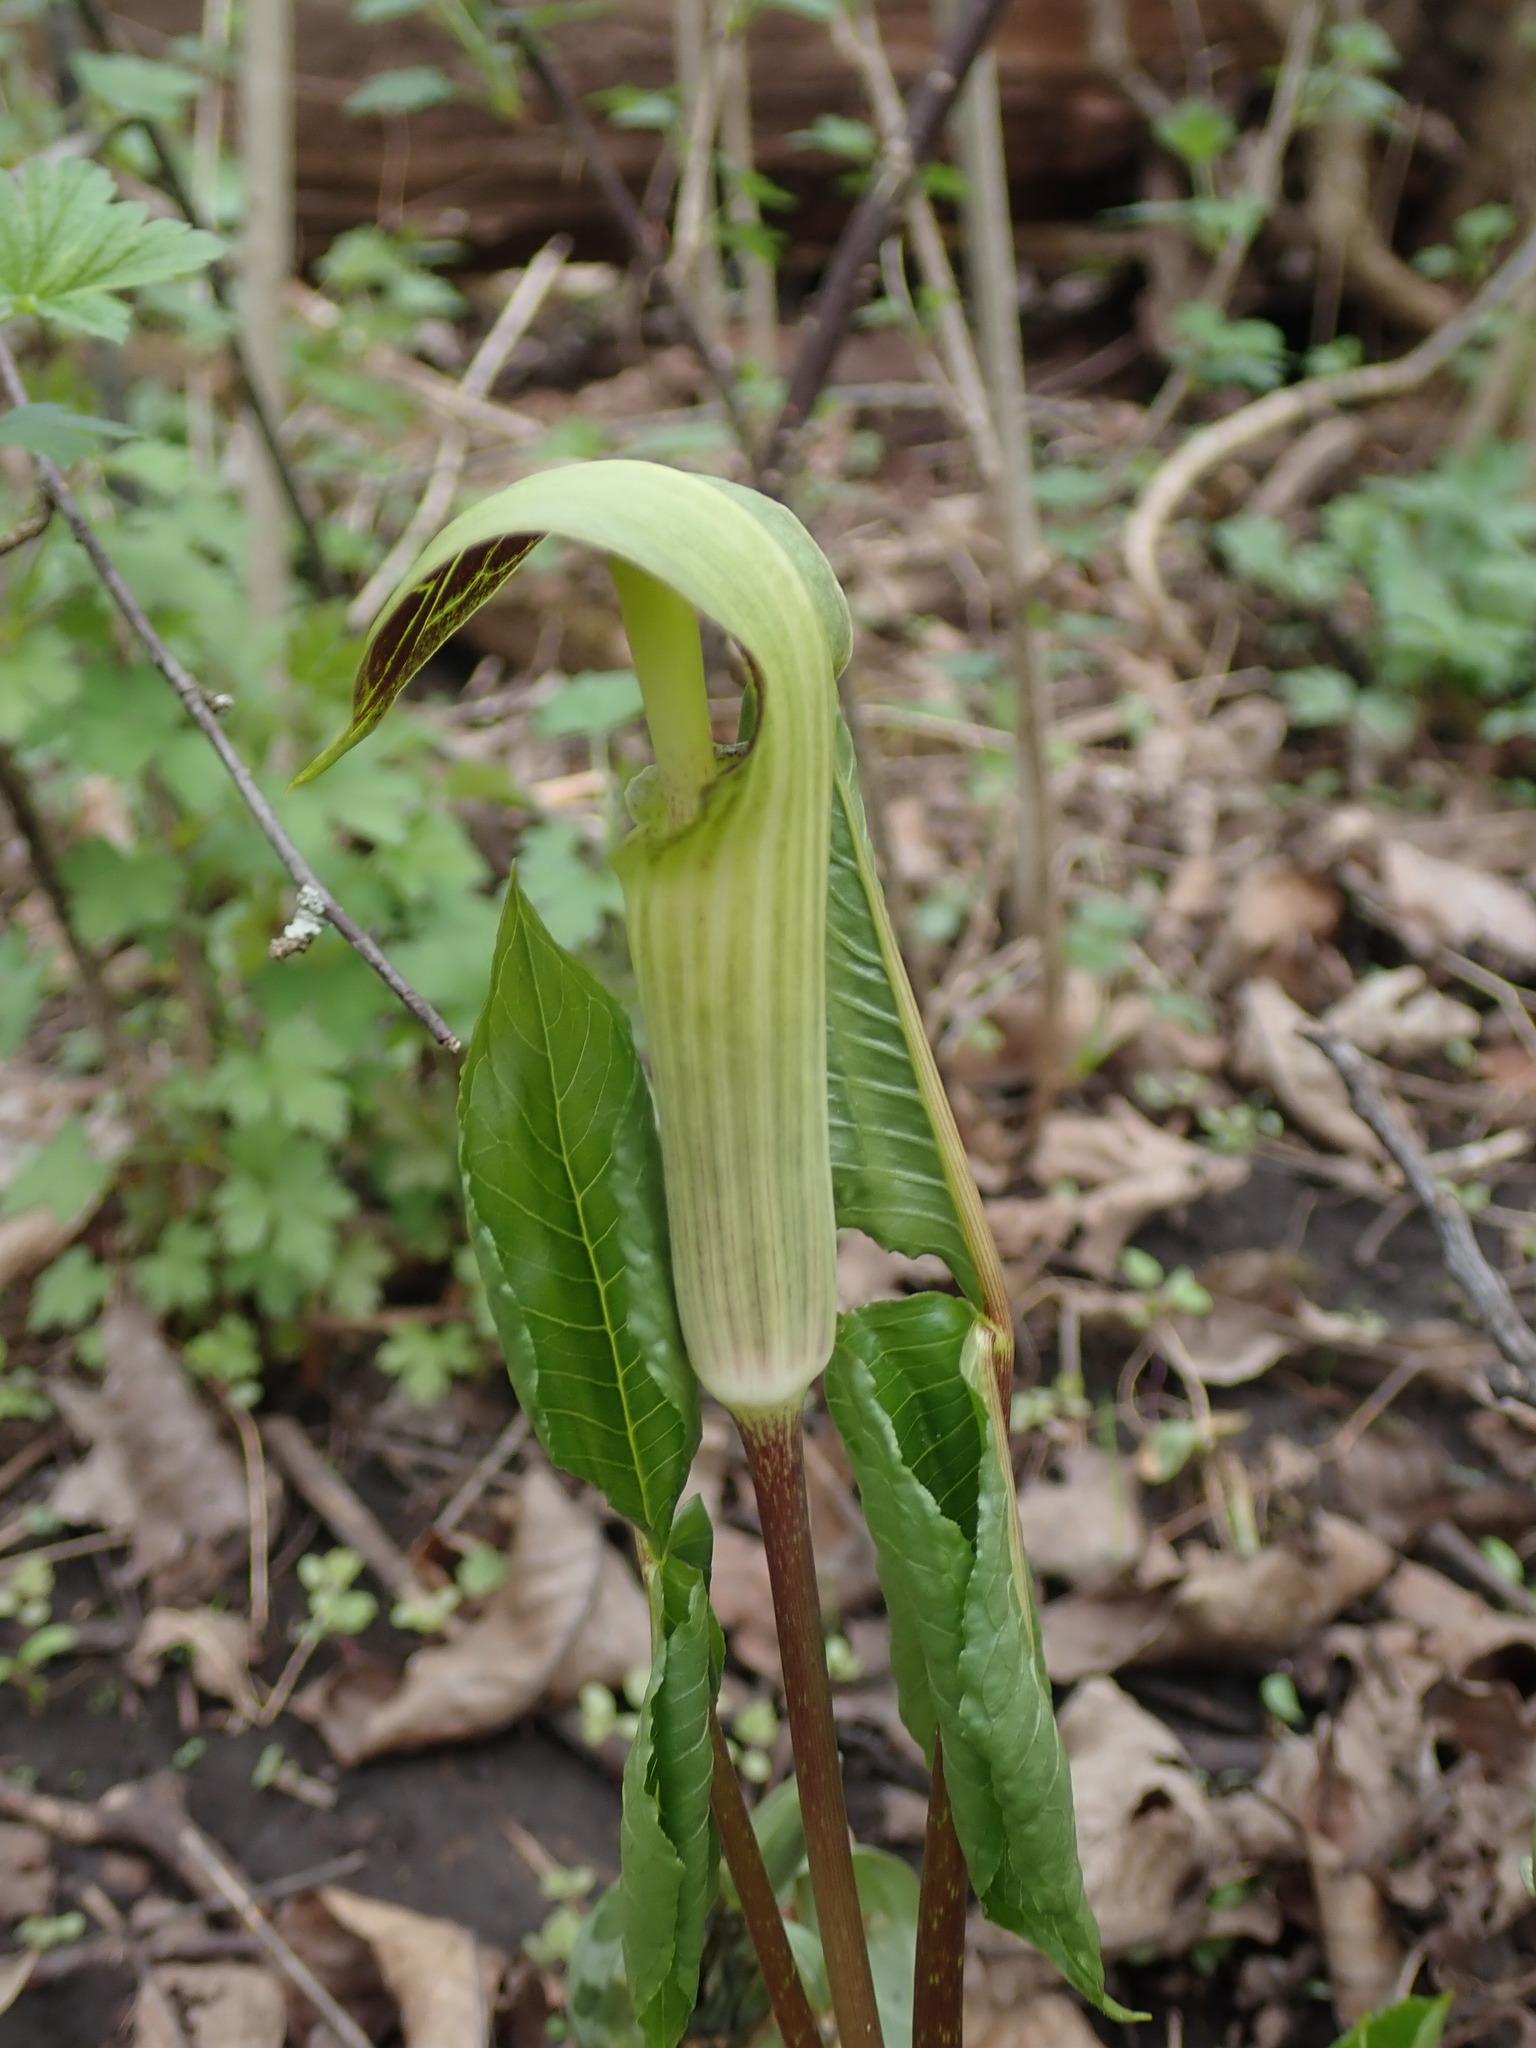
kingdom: Plantae
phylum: Tracheophyta
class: Liliopsida
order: Alismatales
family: Araceae
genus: Arisaema
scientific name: Arisaema triphyllum
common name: Jack-in-the-pulpit
